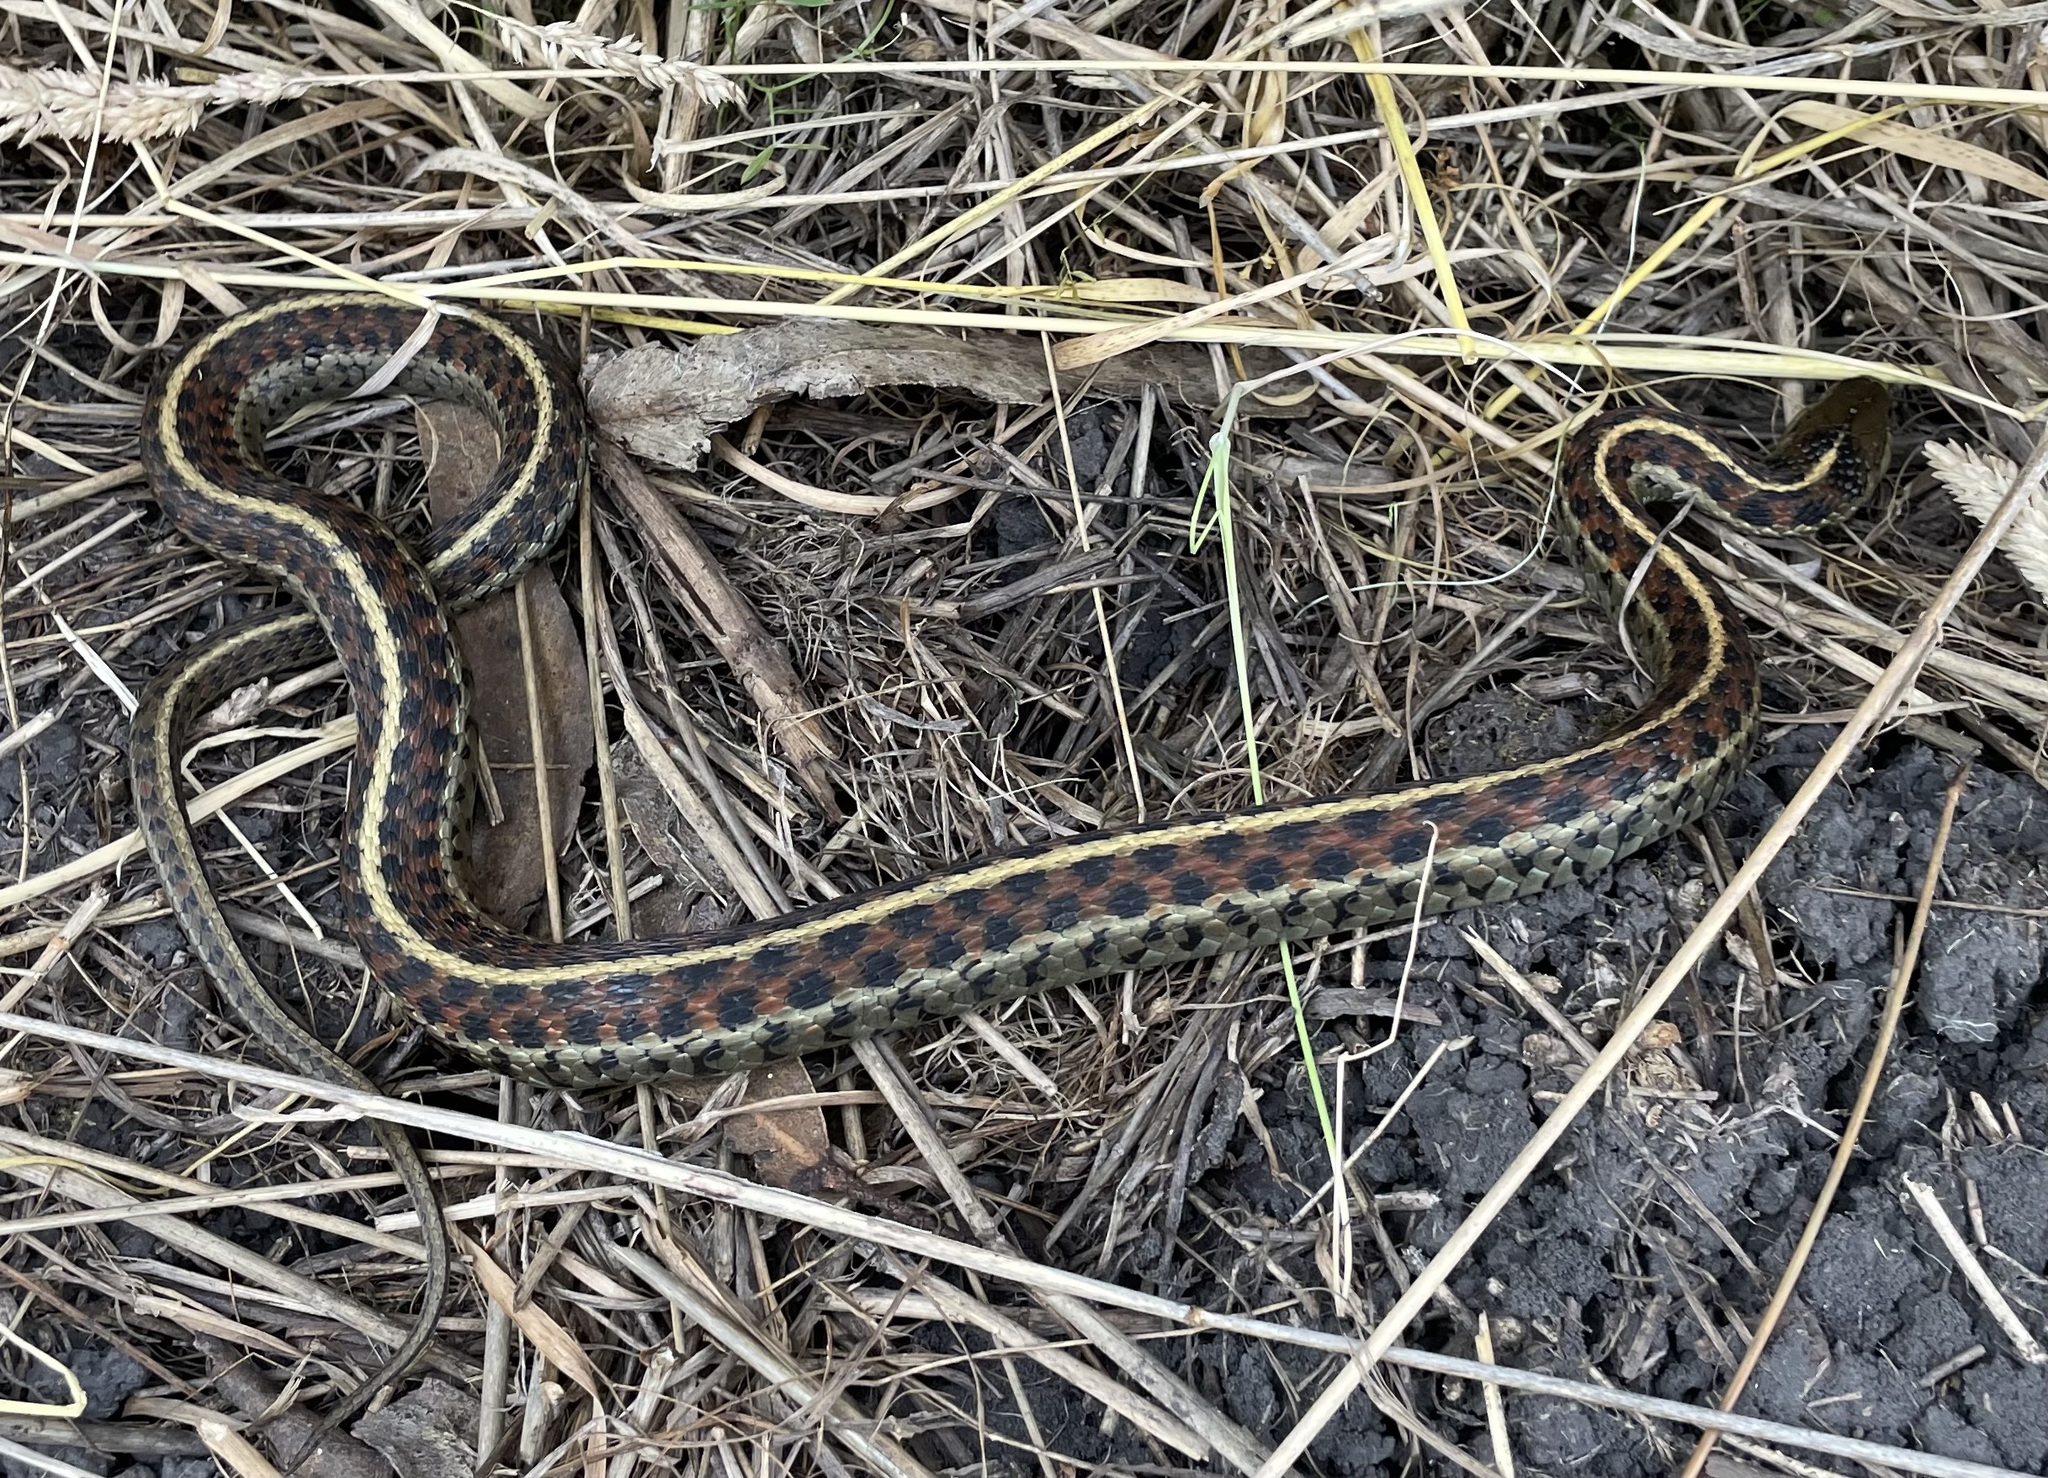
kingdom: Animalia
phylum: Chordata
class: Squamata
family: Colubridae
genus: Thamnophis
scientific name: Thamnophis elegans
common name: Western terrestrial garter snake
